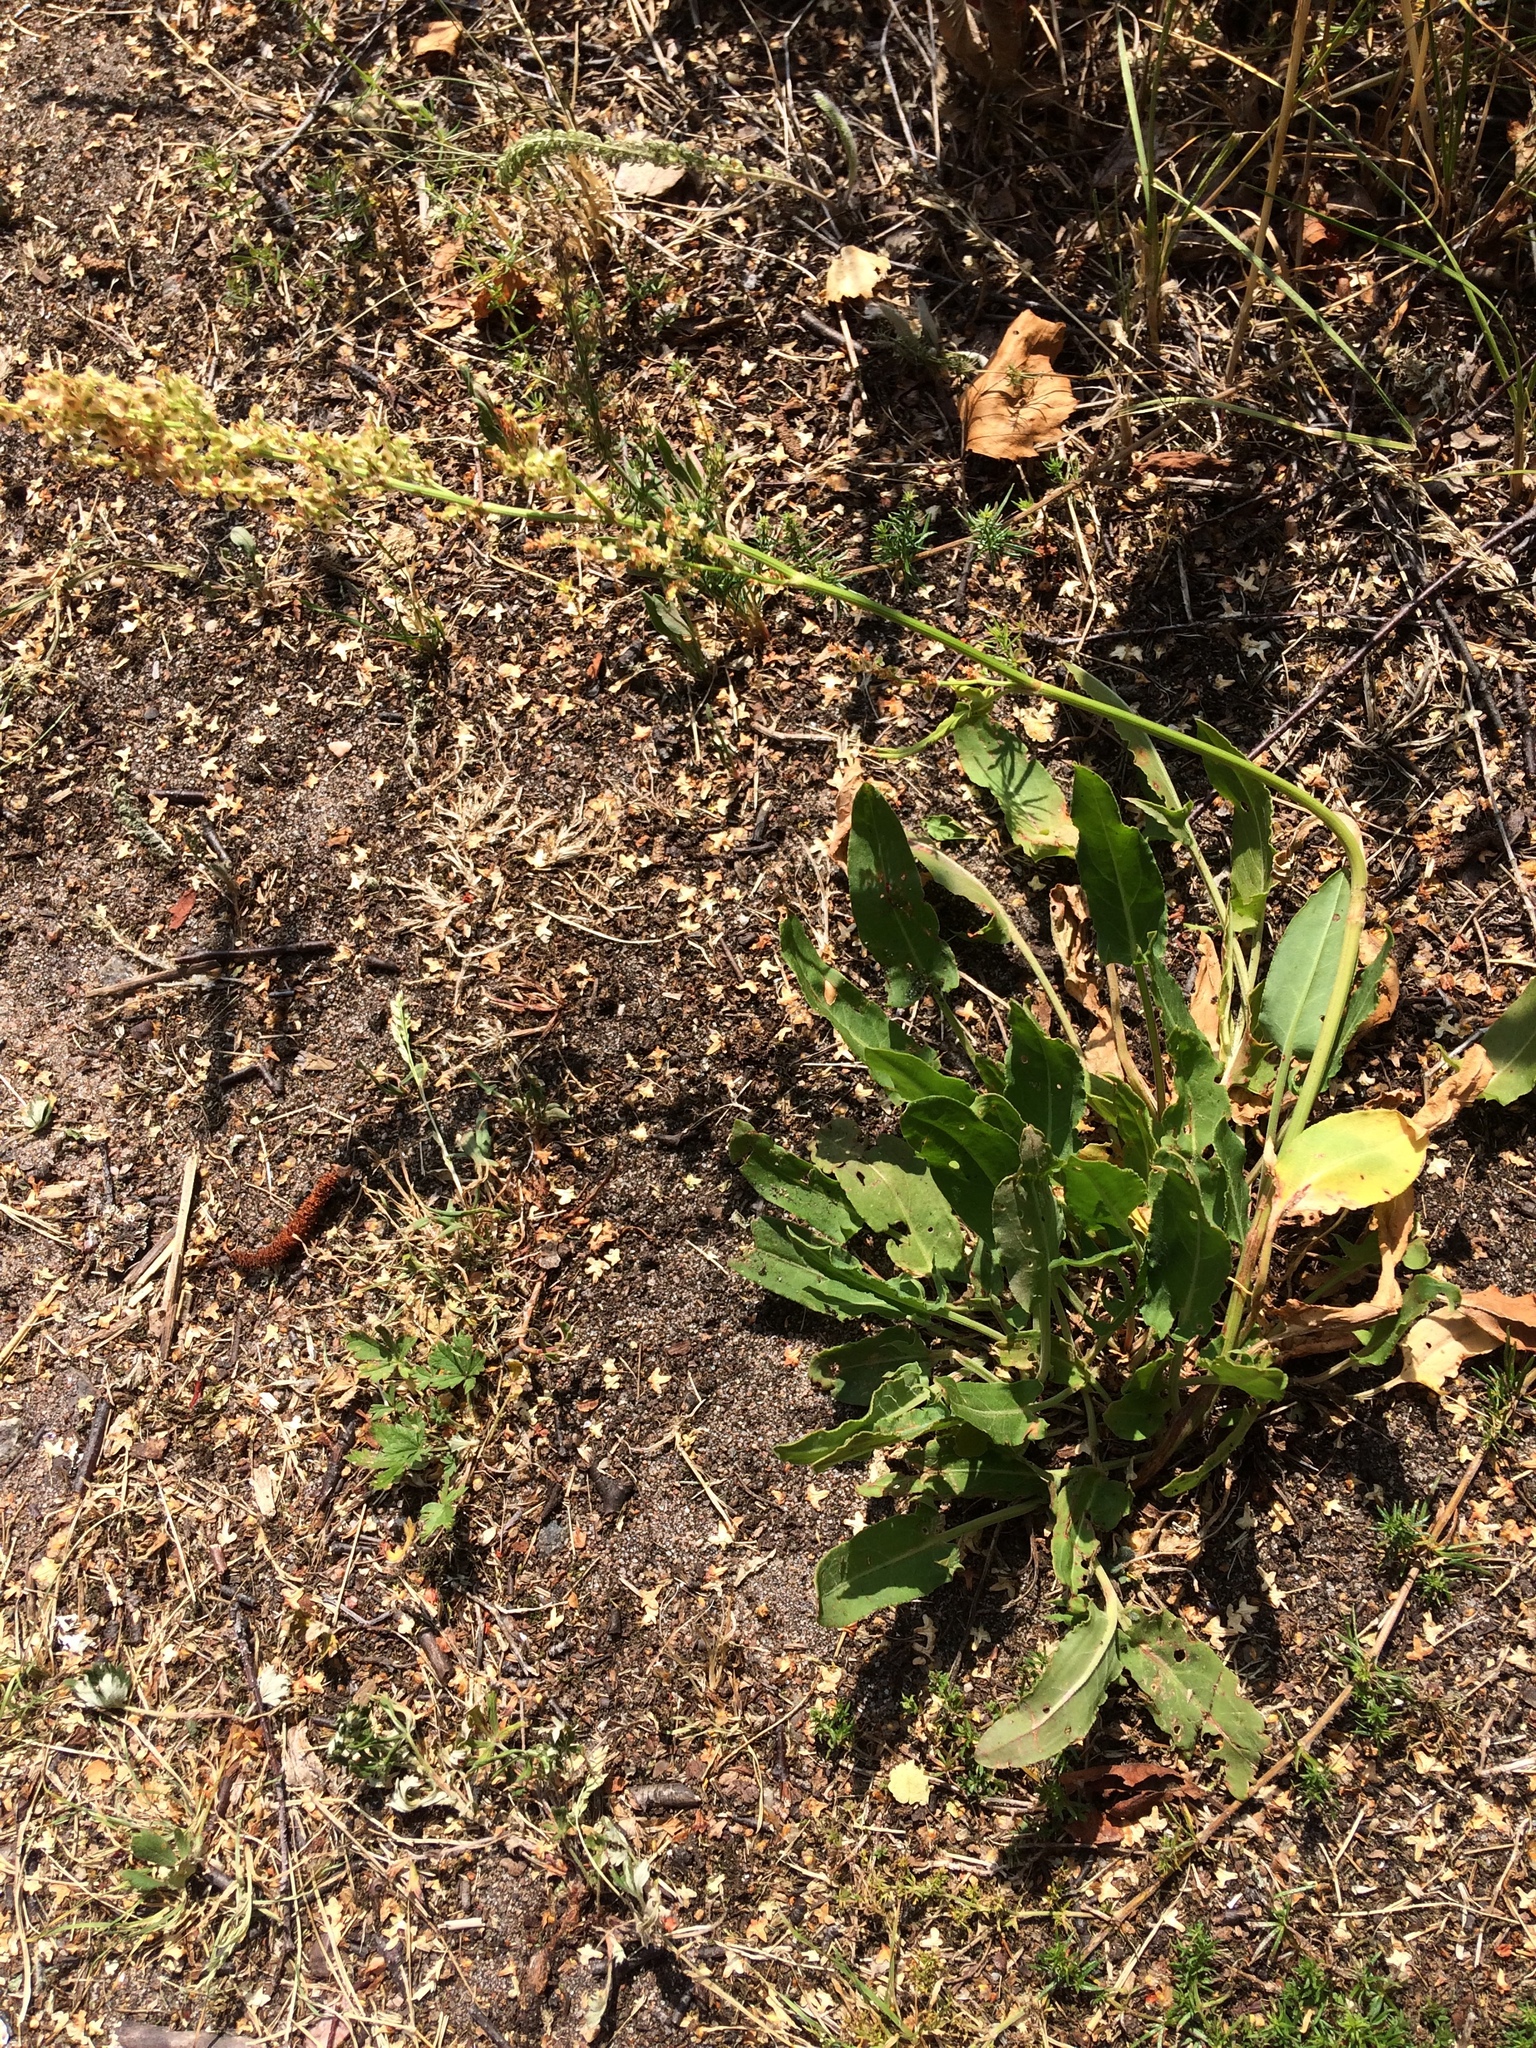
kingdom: Plantae
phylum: Tracheophyta
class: Magnoliopsida
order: Caryophyllales
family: Polygonaceae
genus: Rumex
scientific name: Rumex acetosa
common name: Garden sorrel
